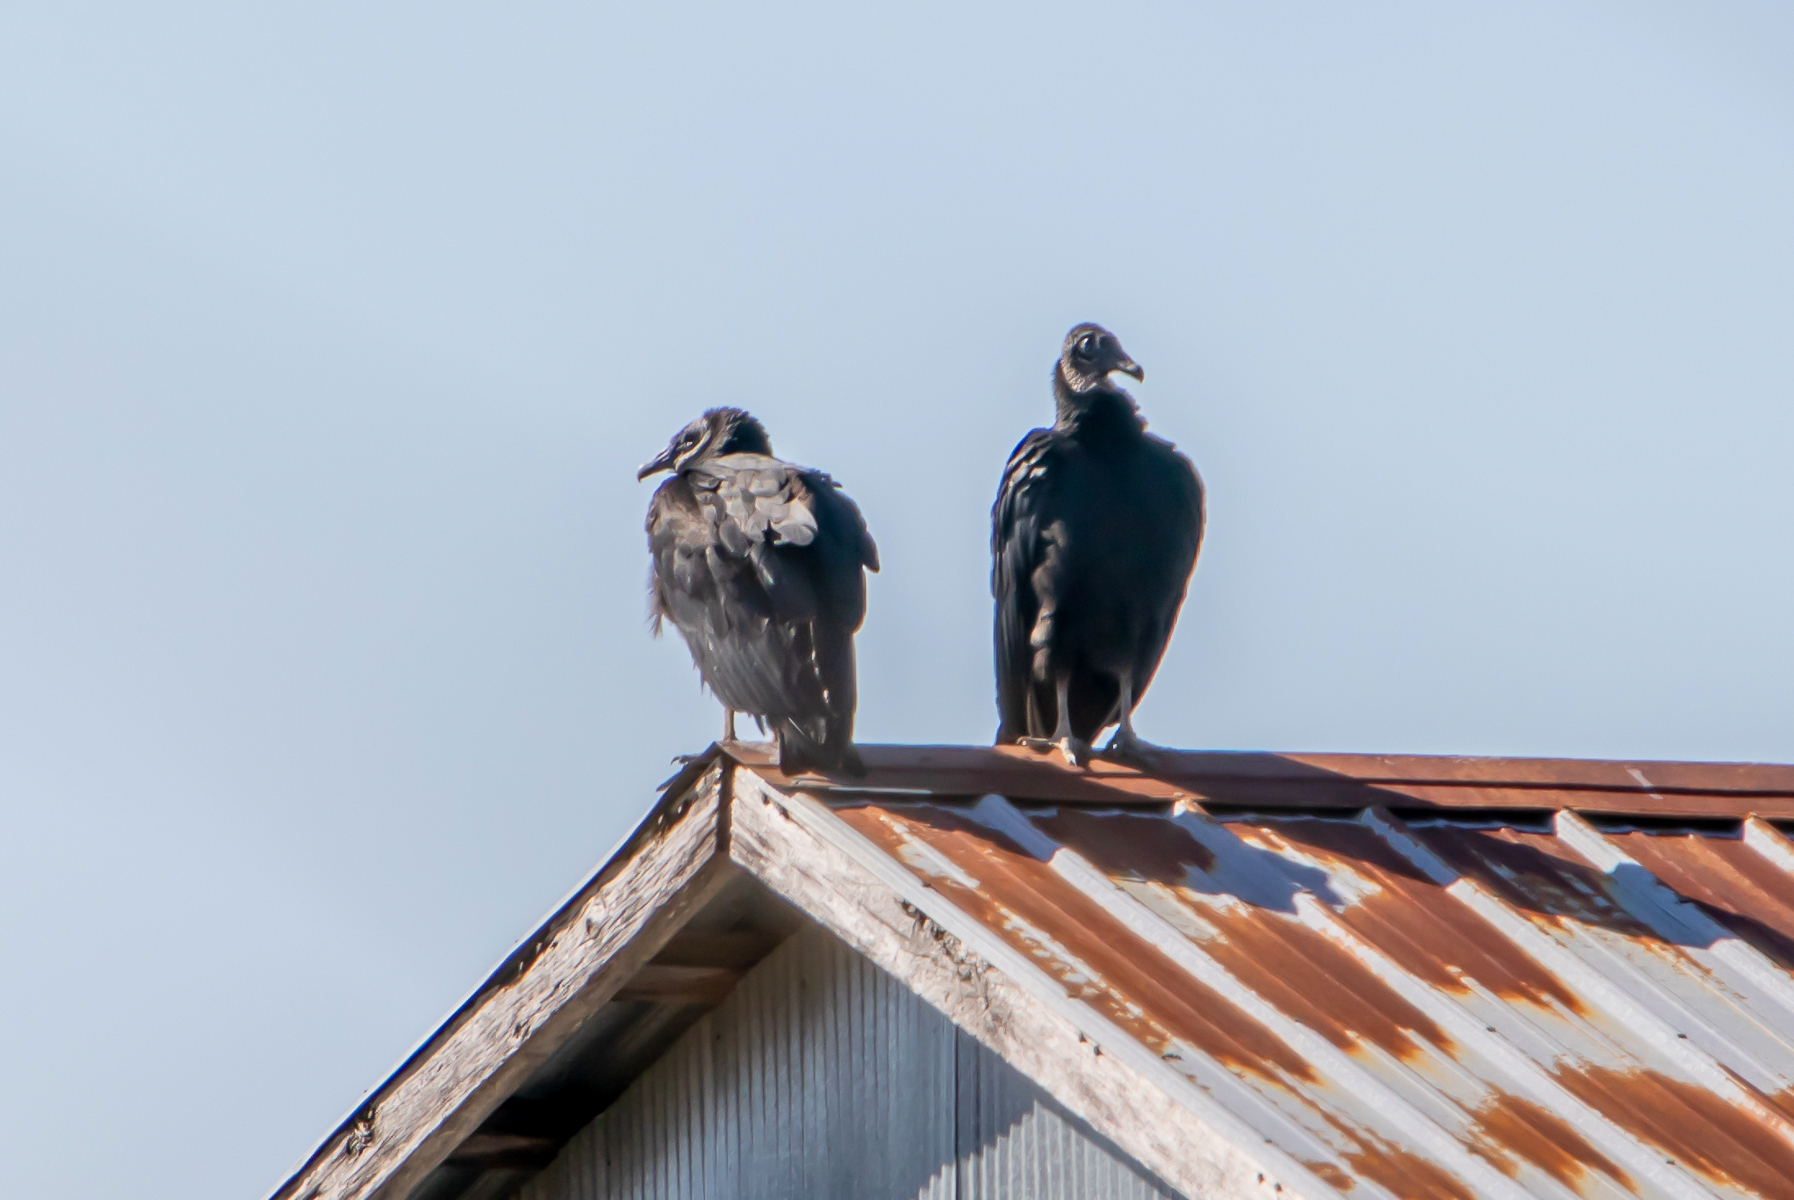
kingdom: Animalia
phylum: Chordata
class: Aves
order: Accipitriformes
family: Cathartidae
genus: Coragyps
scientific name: Coragyps atratus
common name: Black vulture
